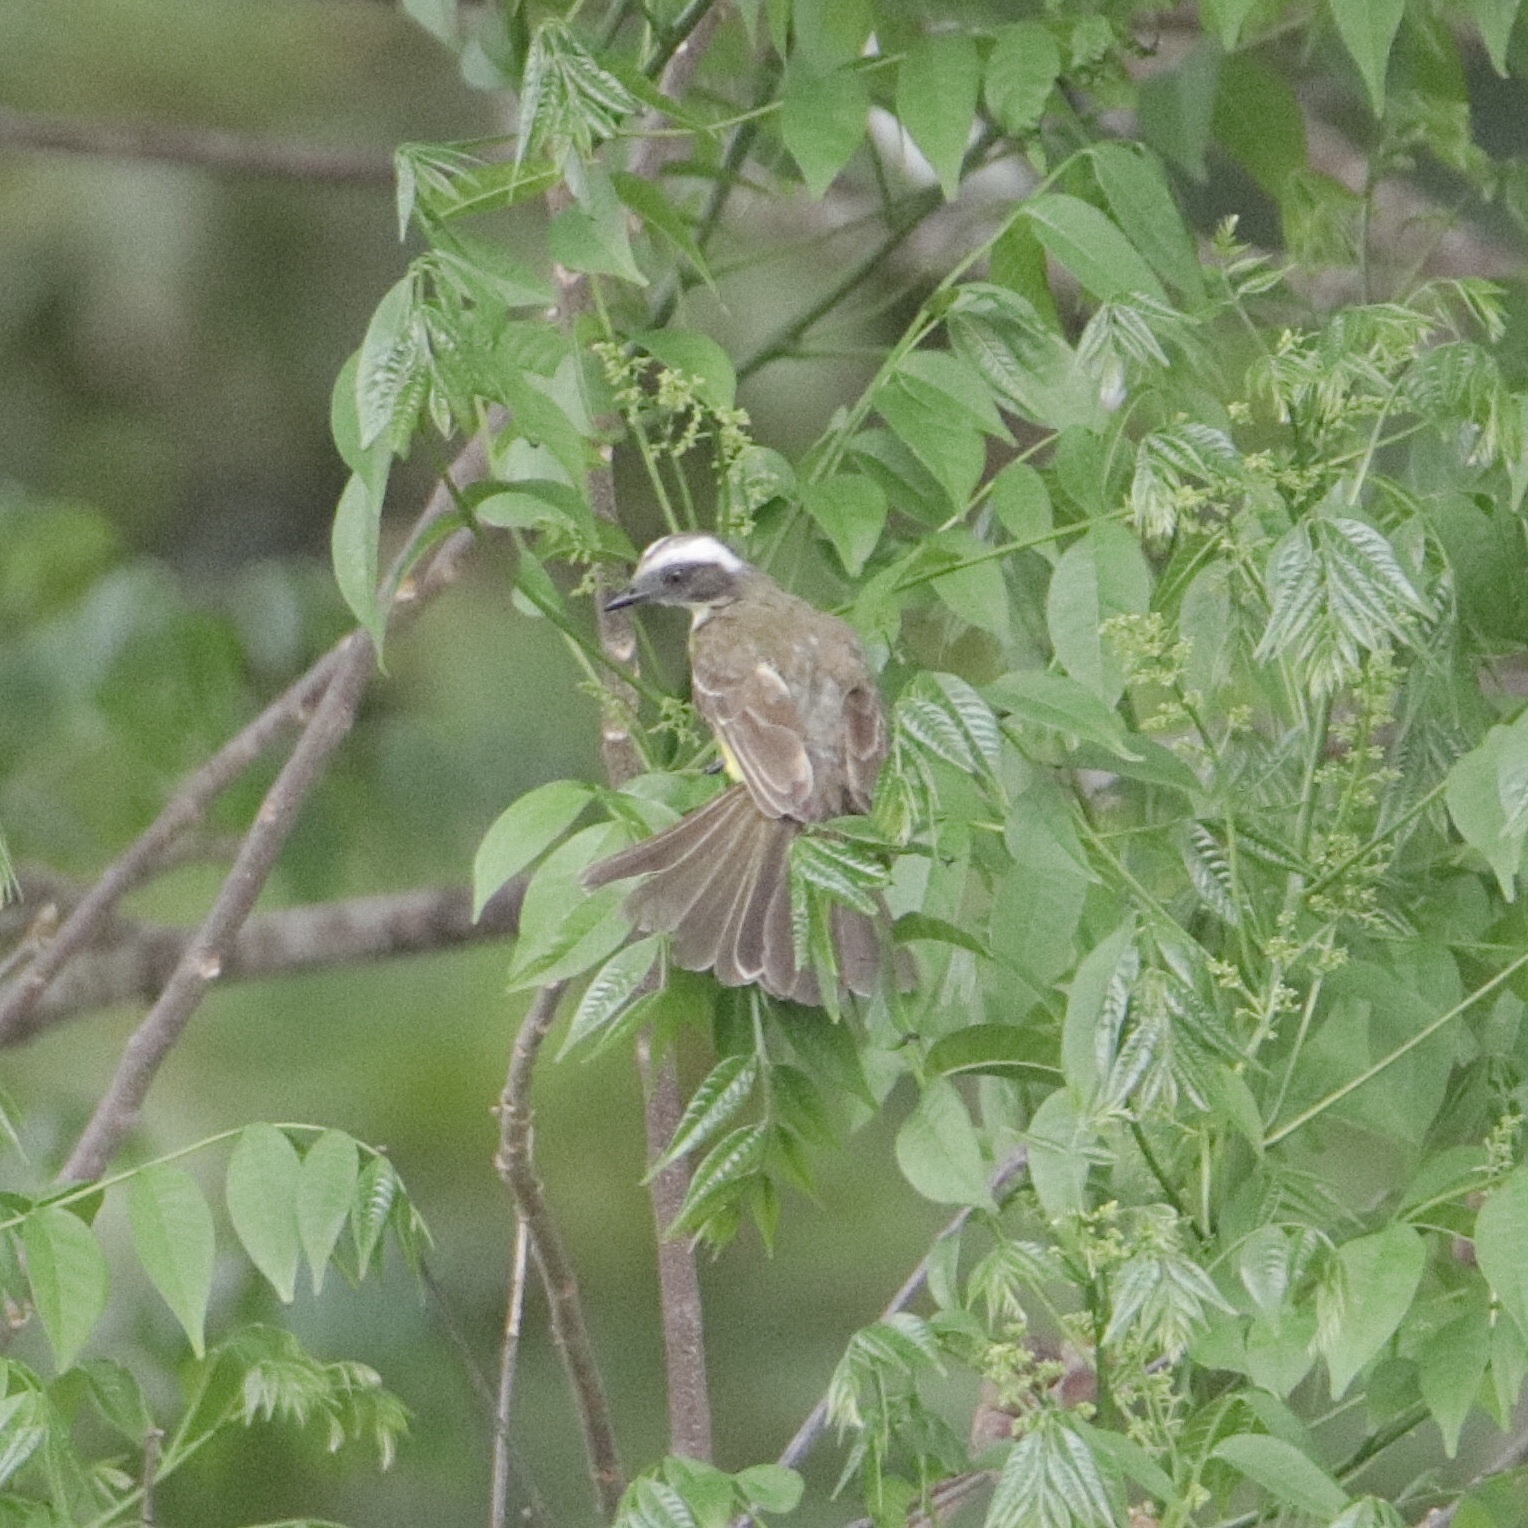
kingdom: Animalia
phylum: Chordata
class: Aves
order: Passeriformes
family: Tyrannidae
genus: Myiozetetes
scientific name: Myiozetetes similis
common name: Social flycatcher
